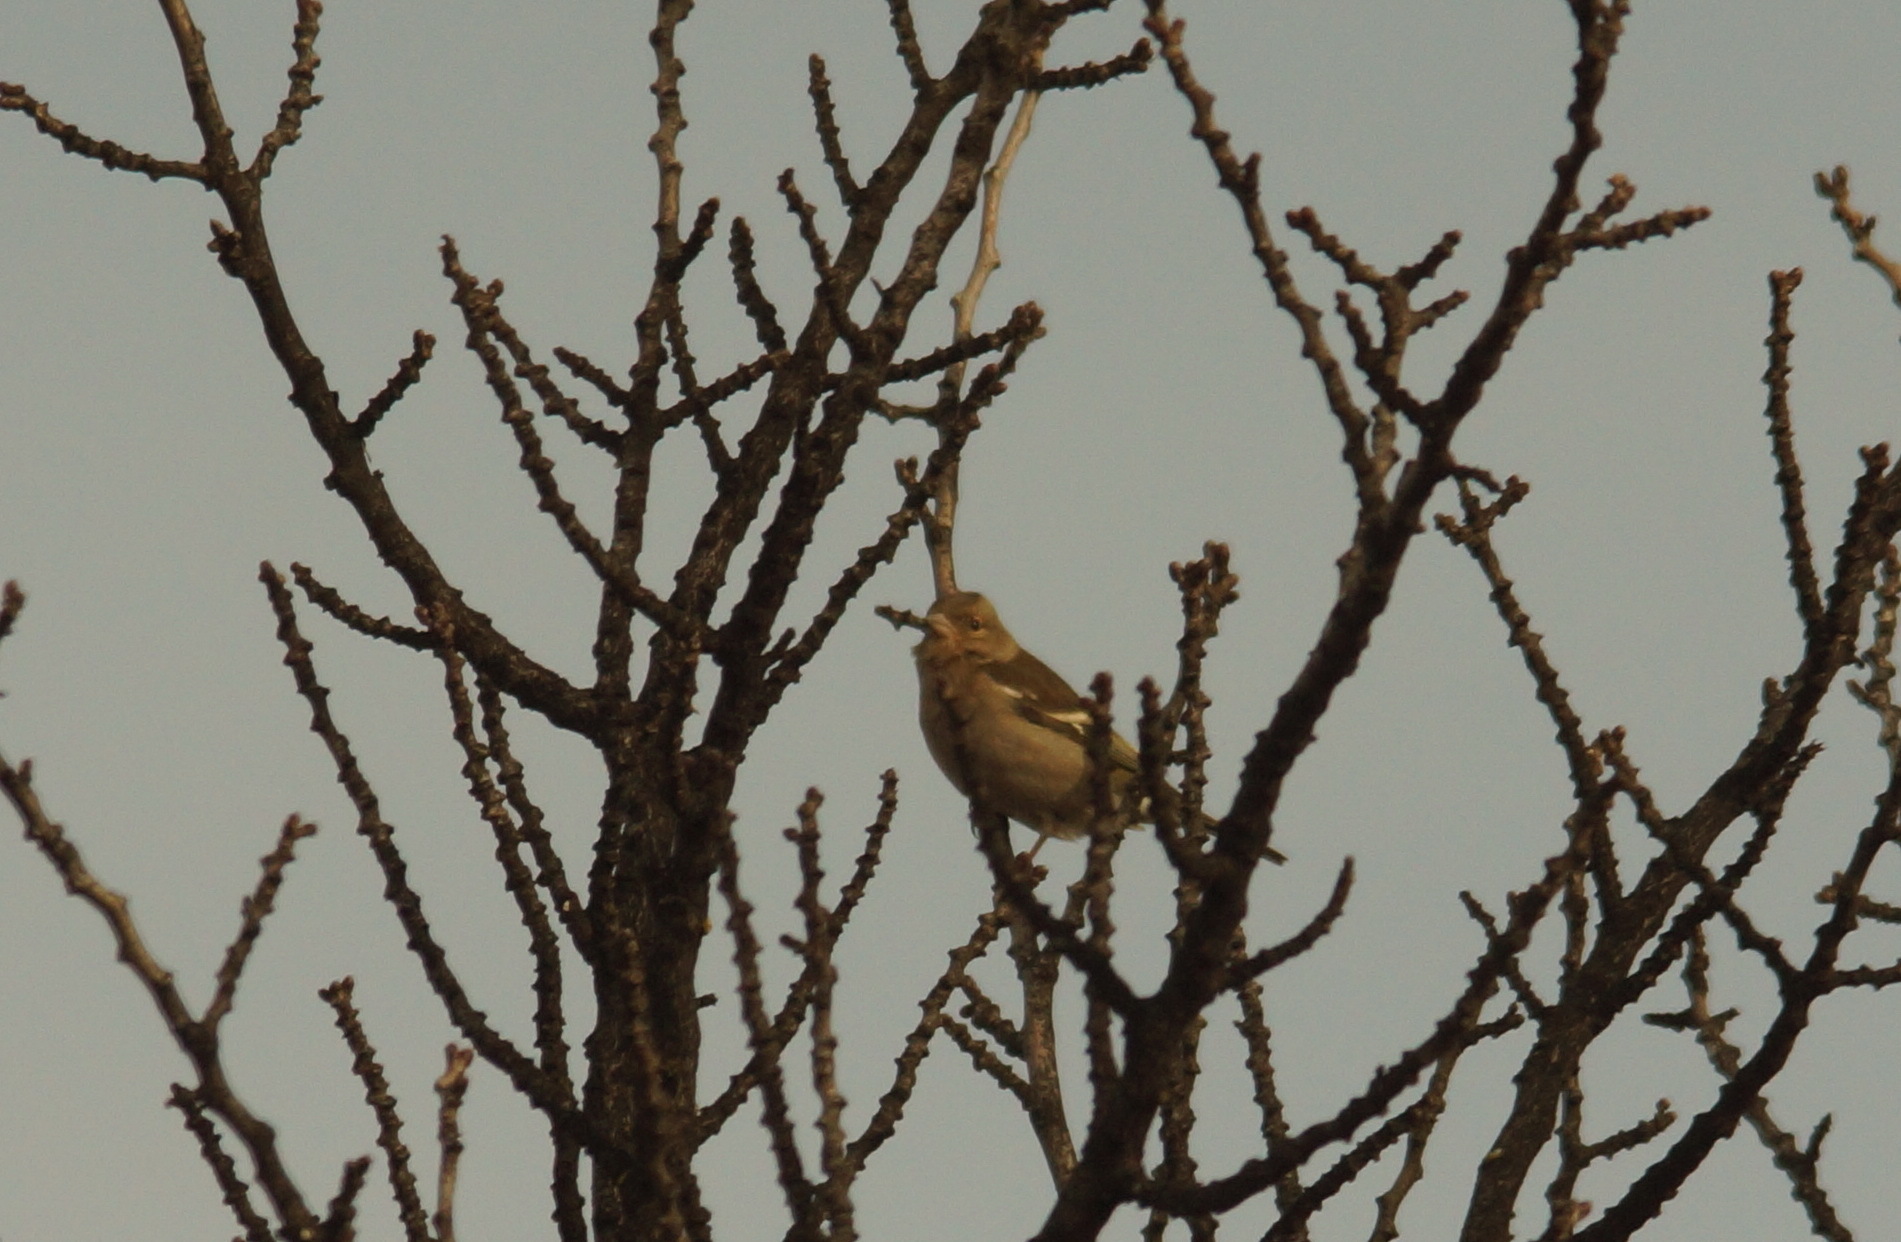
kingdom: Animalia
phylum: Chordata
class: Aves
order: Passeriformes
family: Fringillidae
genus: Fringilla
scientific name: Fringilla coelebs
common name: Common chaffinch
